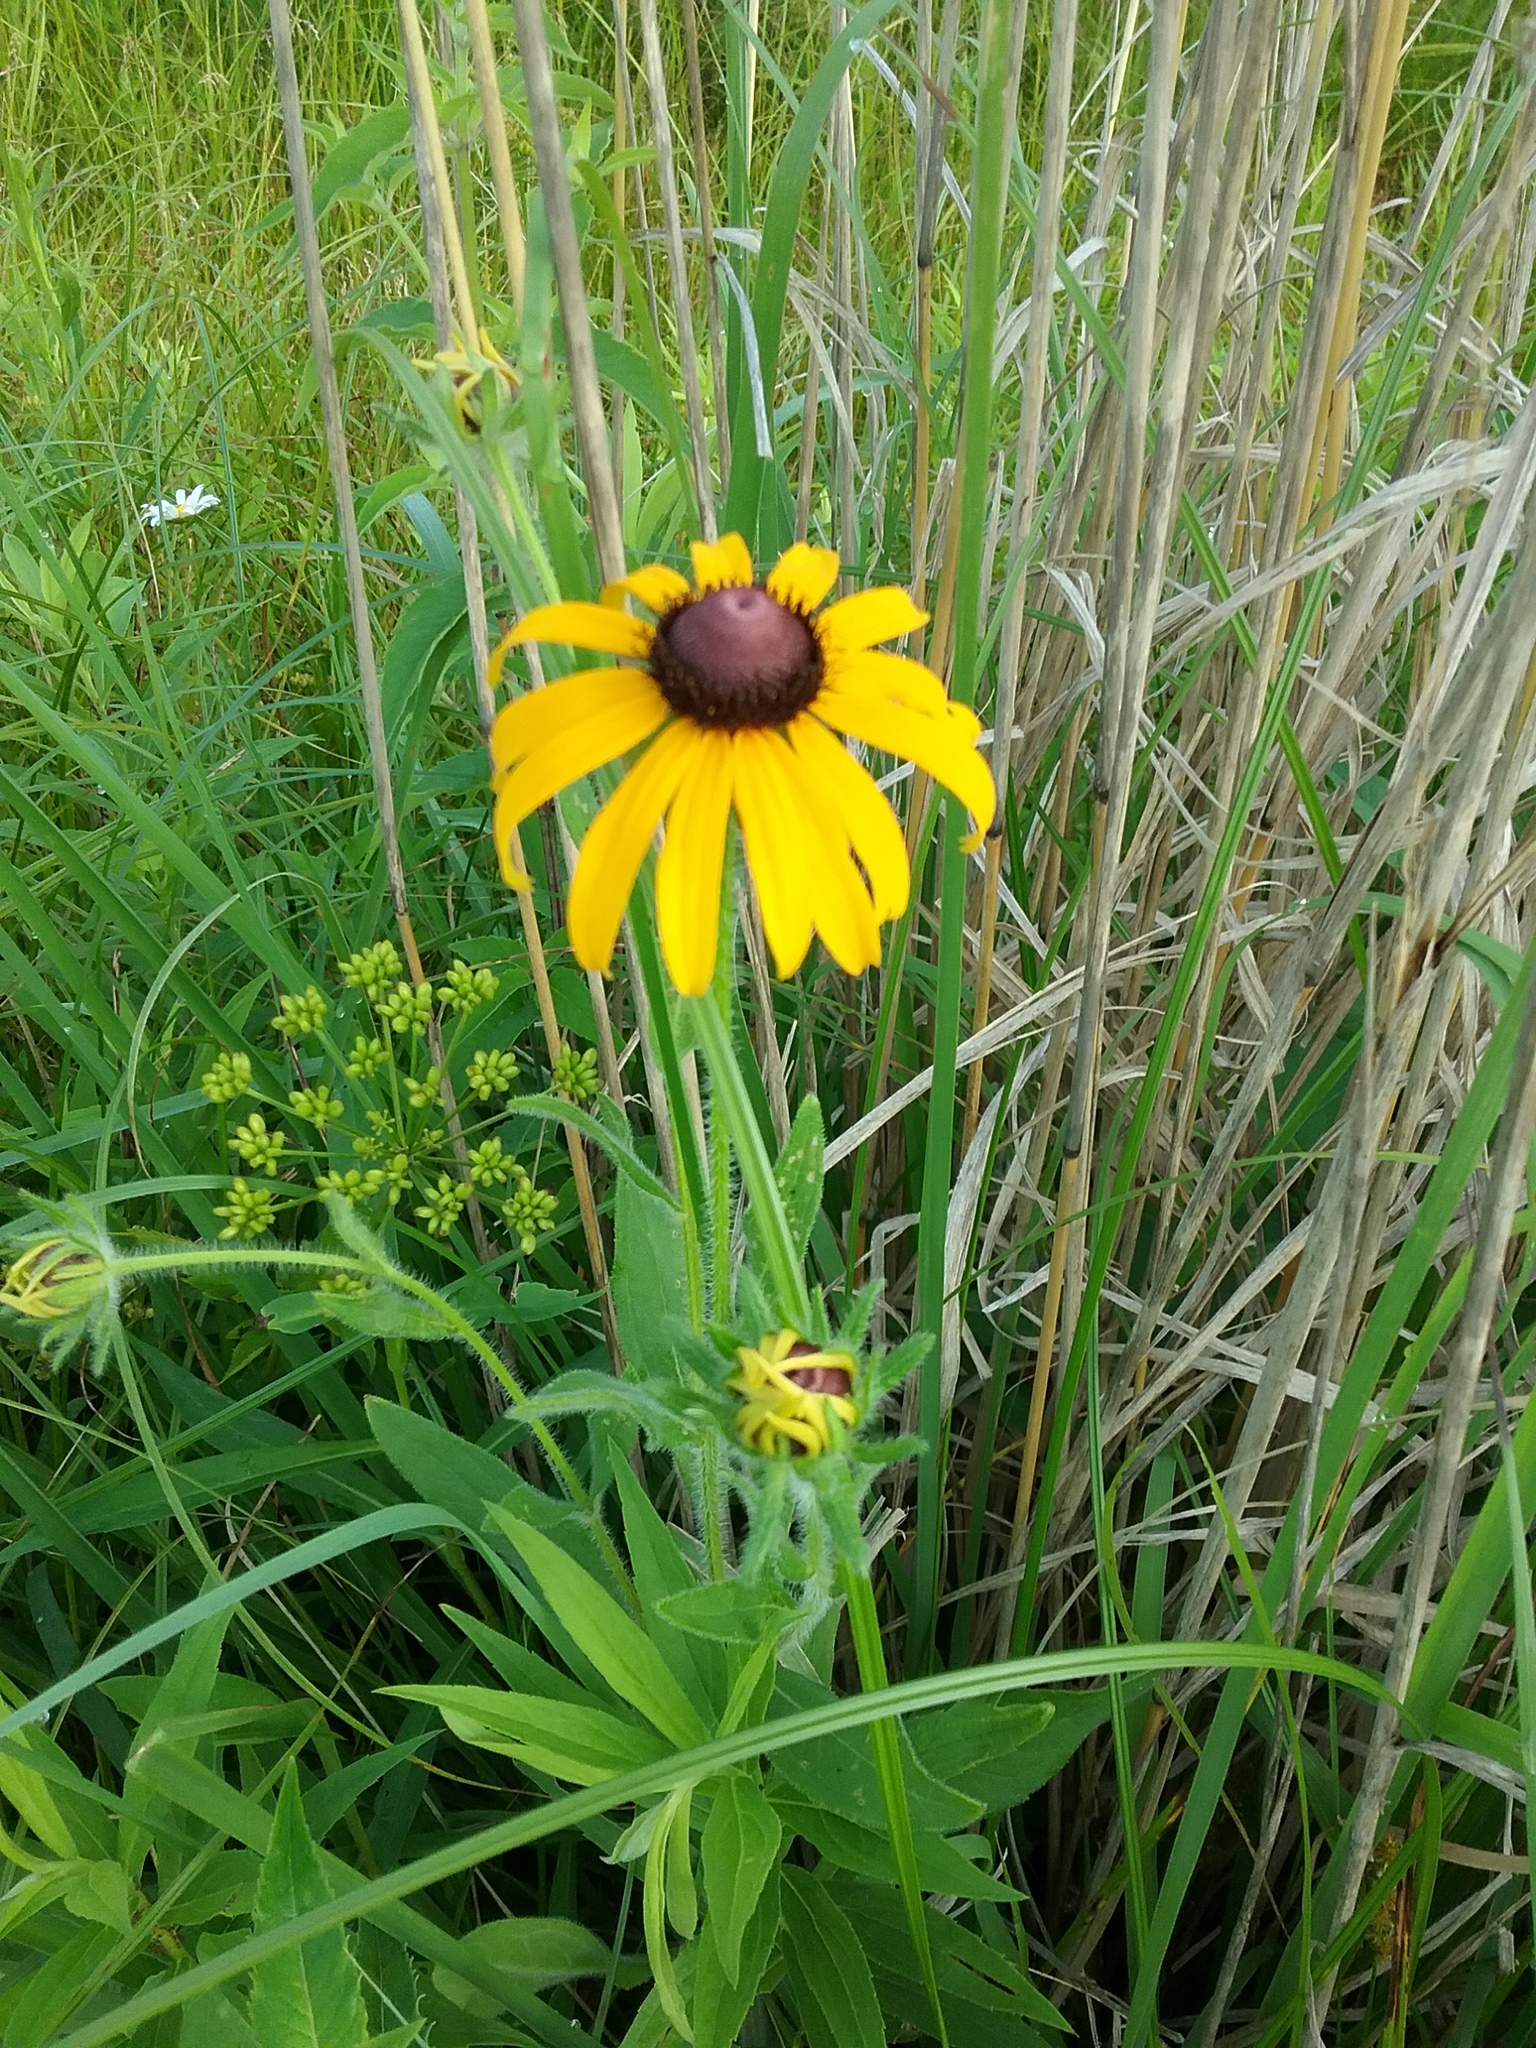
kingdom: Plantae
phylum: Tracheophyta
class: Magnoliopsida
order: Asterales
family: Asteraceae
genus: Rudbeckia
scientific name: Rudbeckia hirta
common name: Black-eyed-susan
